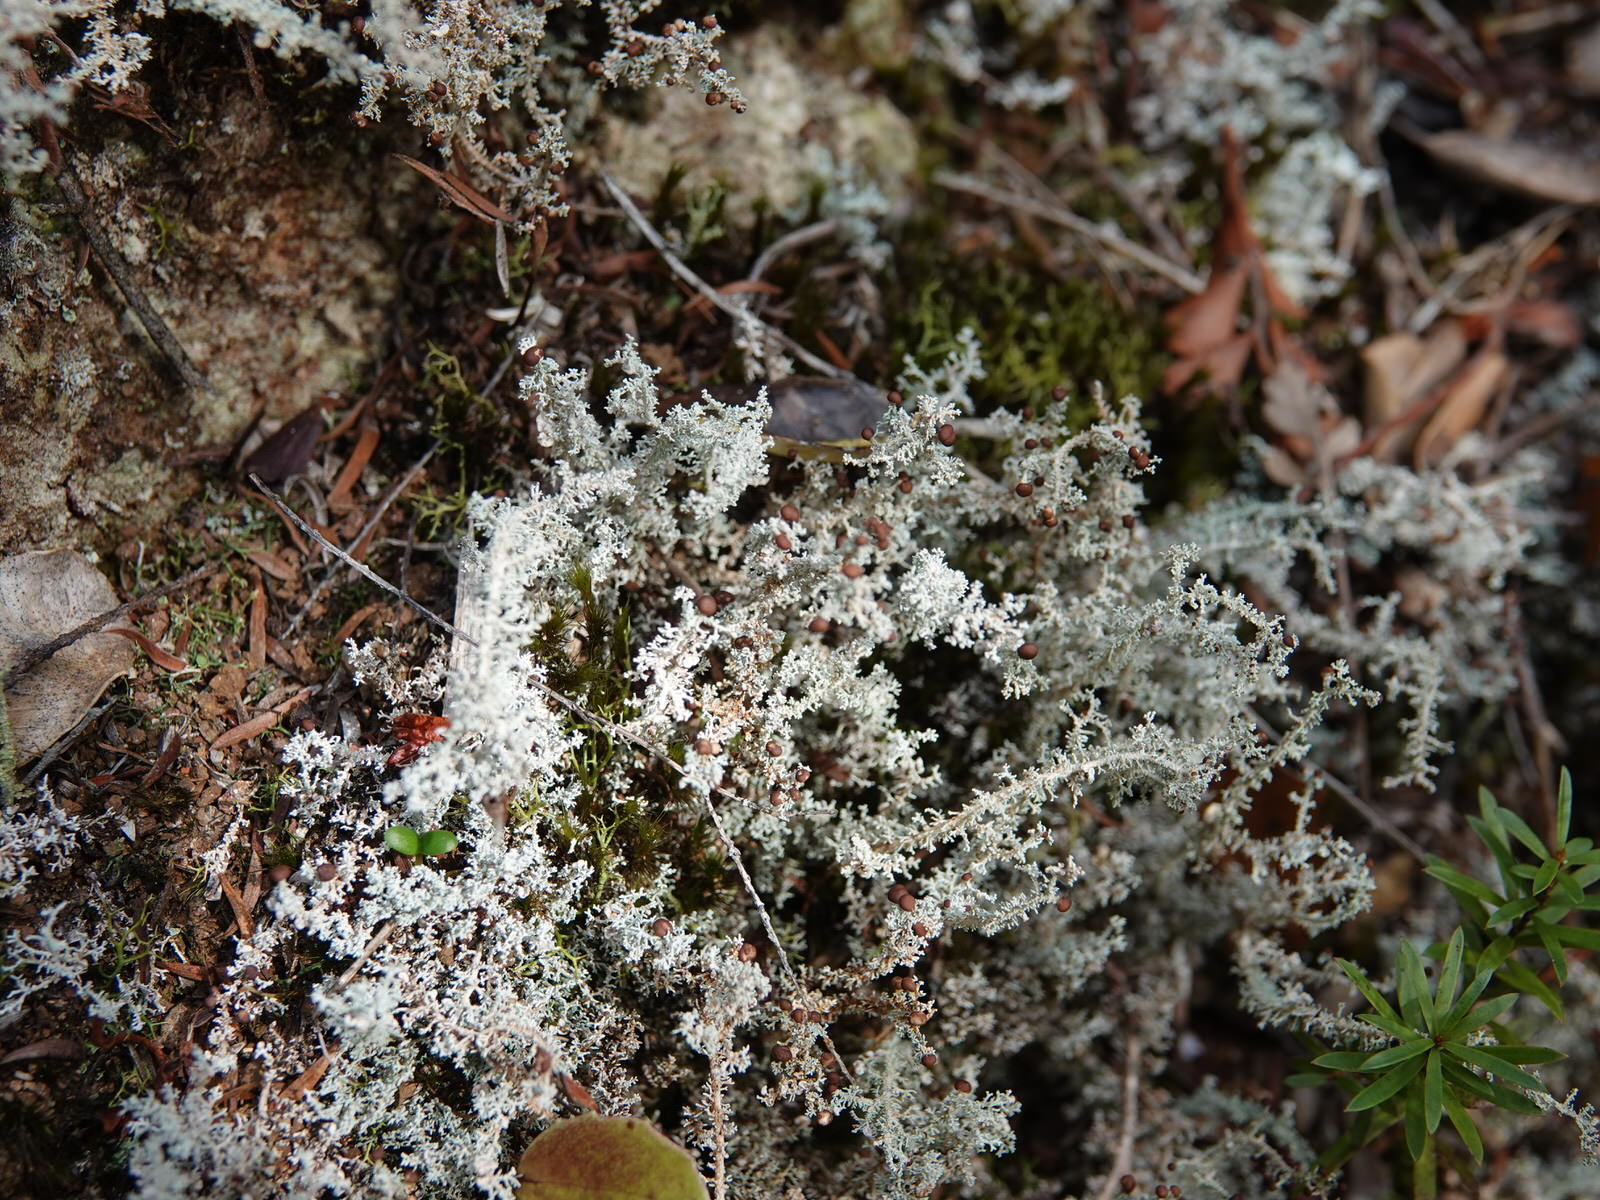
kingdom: Fungi
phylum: Ascomycota
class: Lecanoromycetes
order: Lecanorales
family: Stereocaulaceae
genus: Stereocaulon
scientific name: Stereocaulon ramulosum
